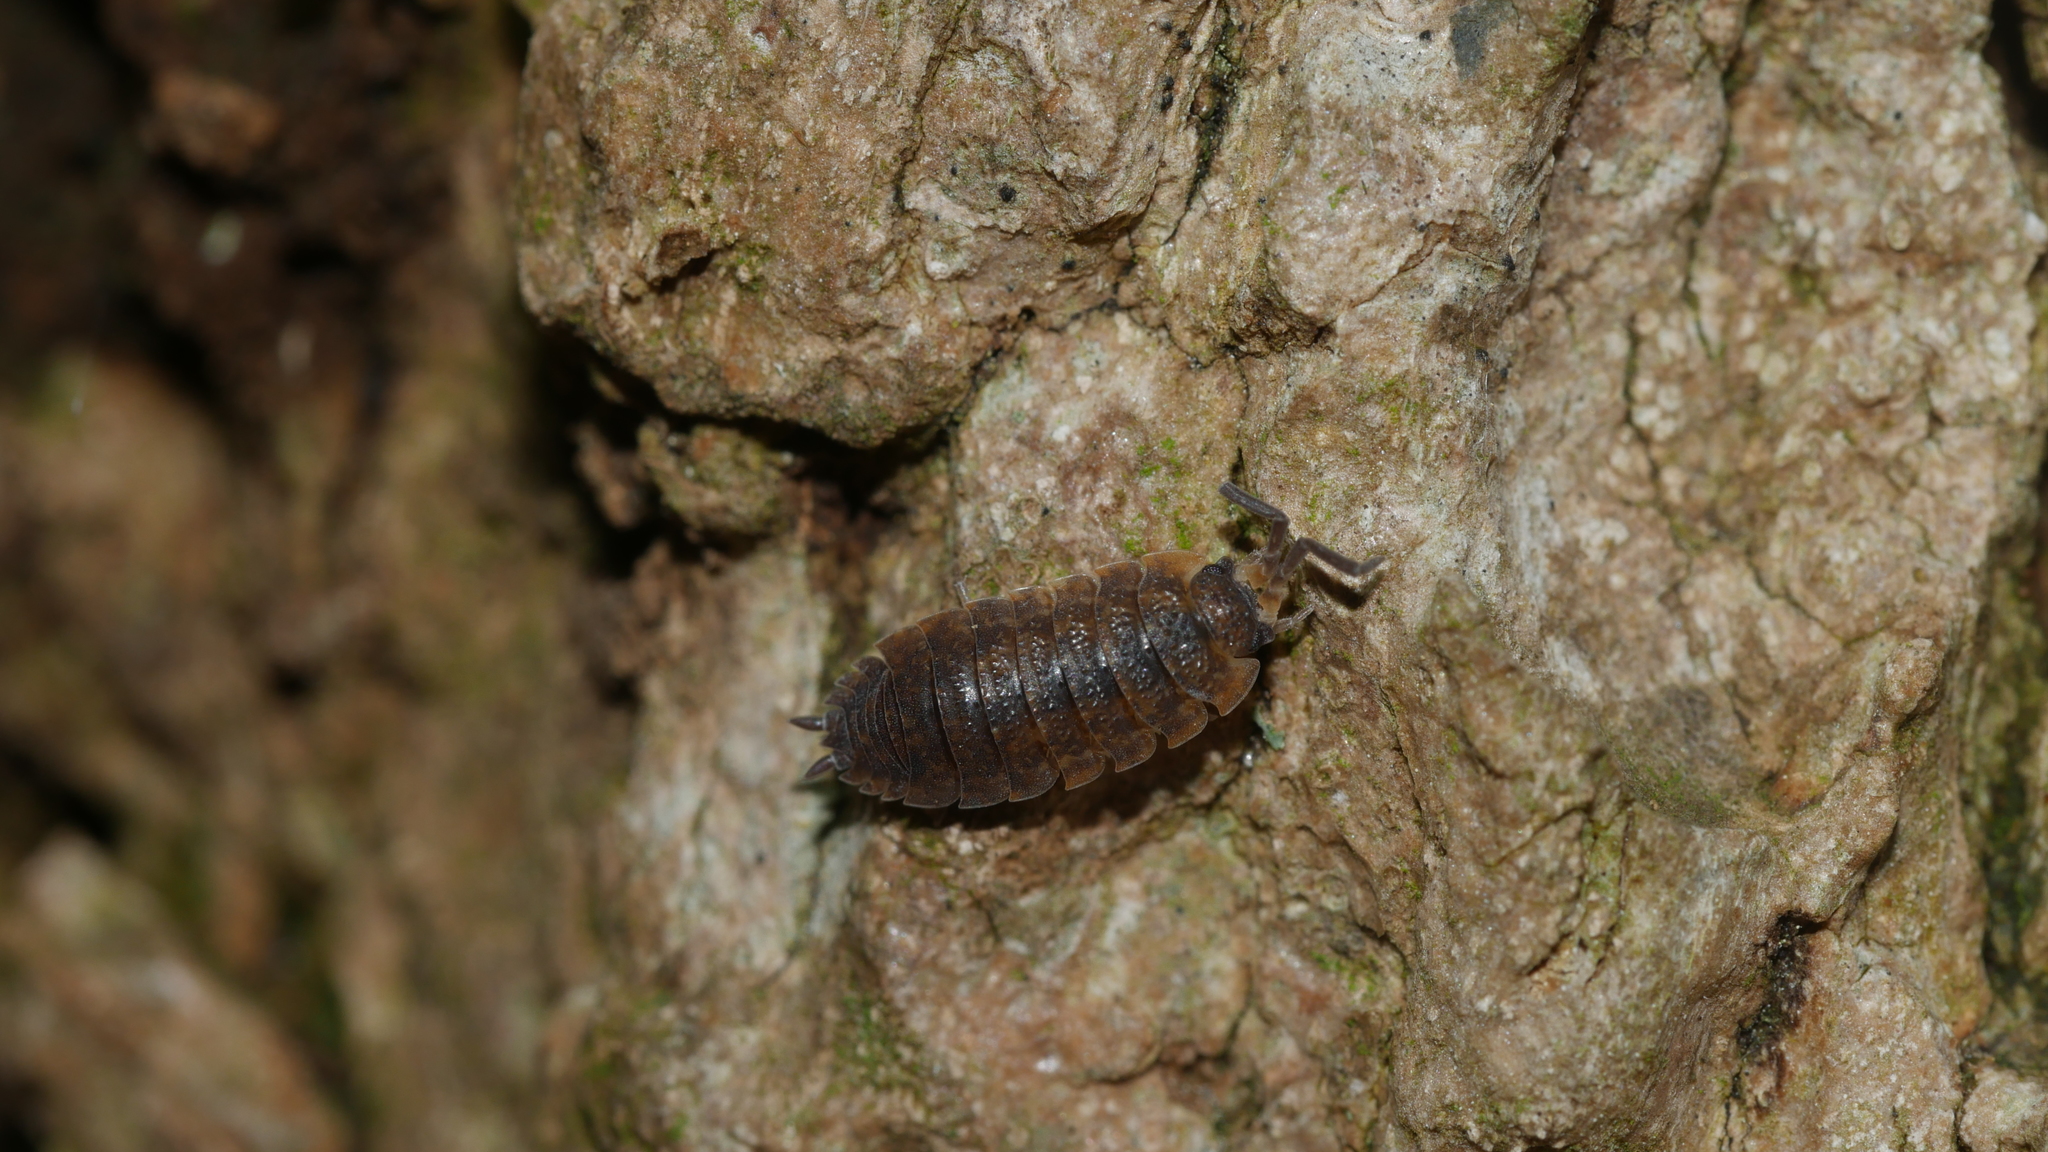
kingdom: Animalia
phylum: Arthropoda
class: Malacostraca
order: Isopoda
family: Porcellionidae
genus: Porcellio
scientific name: Porcellio scaber
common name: Common rough woodlouse
